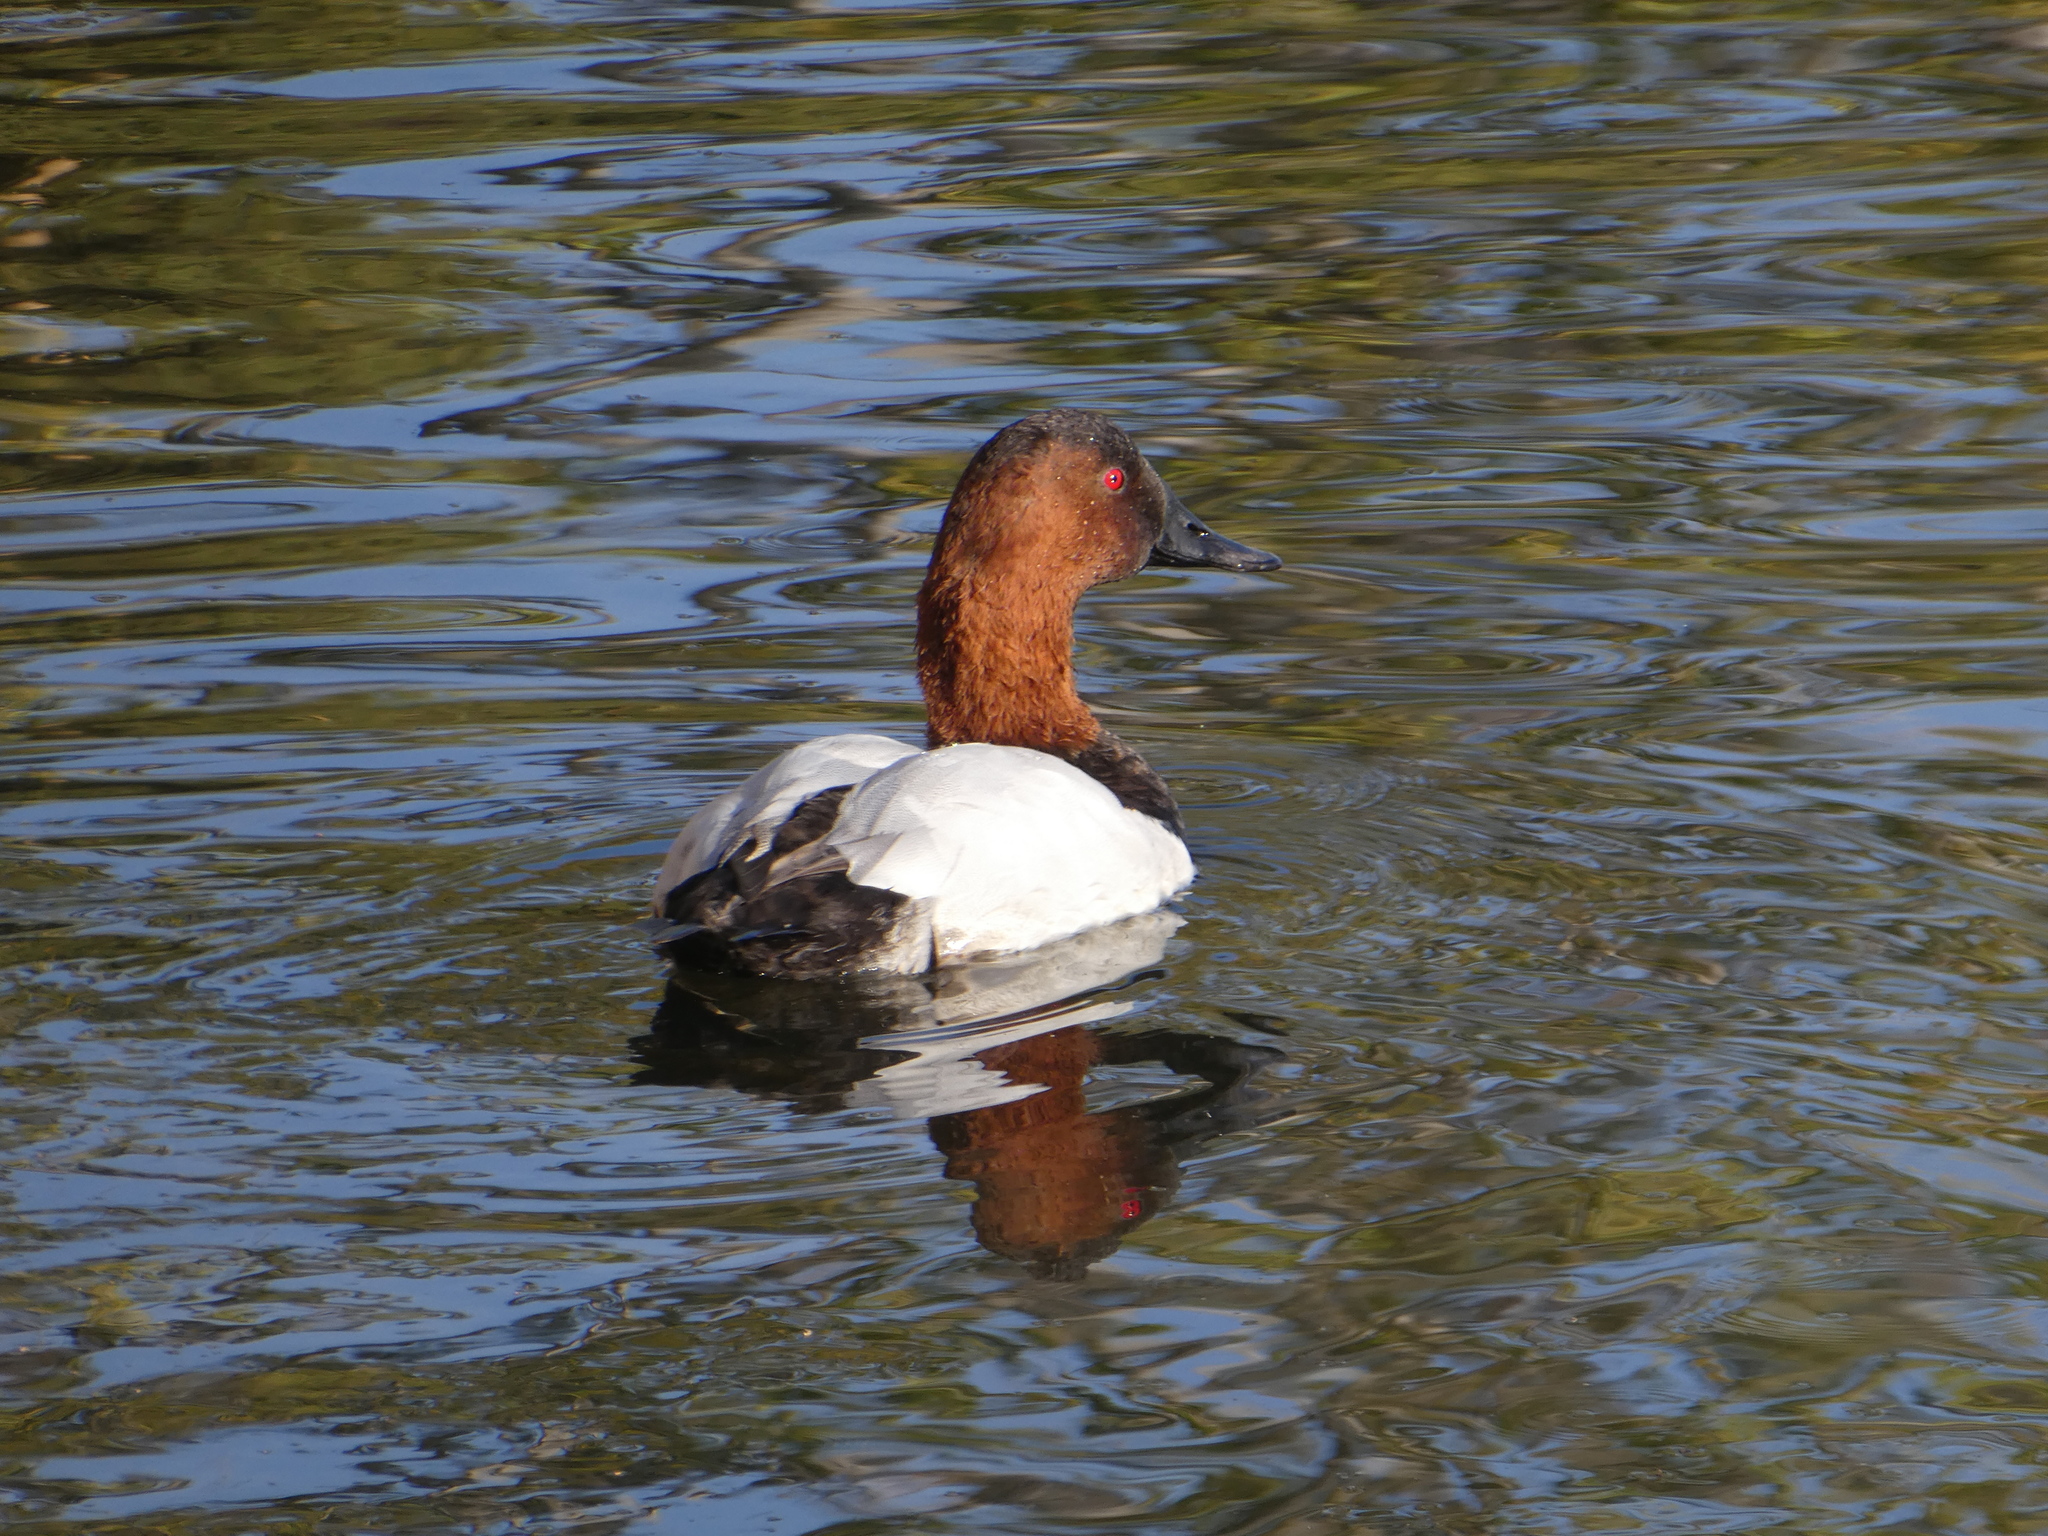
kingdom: Animalia
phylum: Chordata
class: Aves
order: Anseriformes
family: Anatidae
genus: Aythya
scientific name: Aythya valisineria
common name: Canvasback
